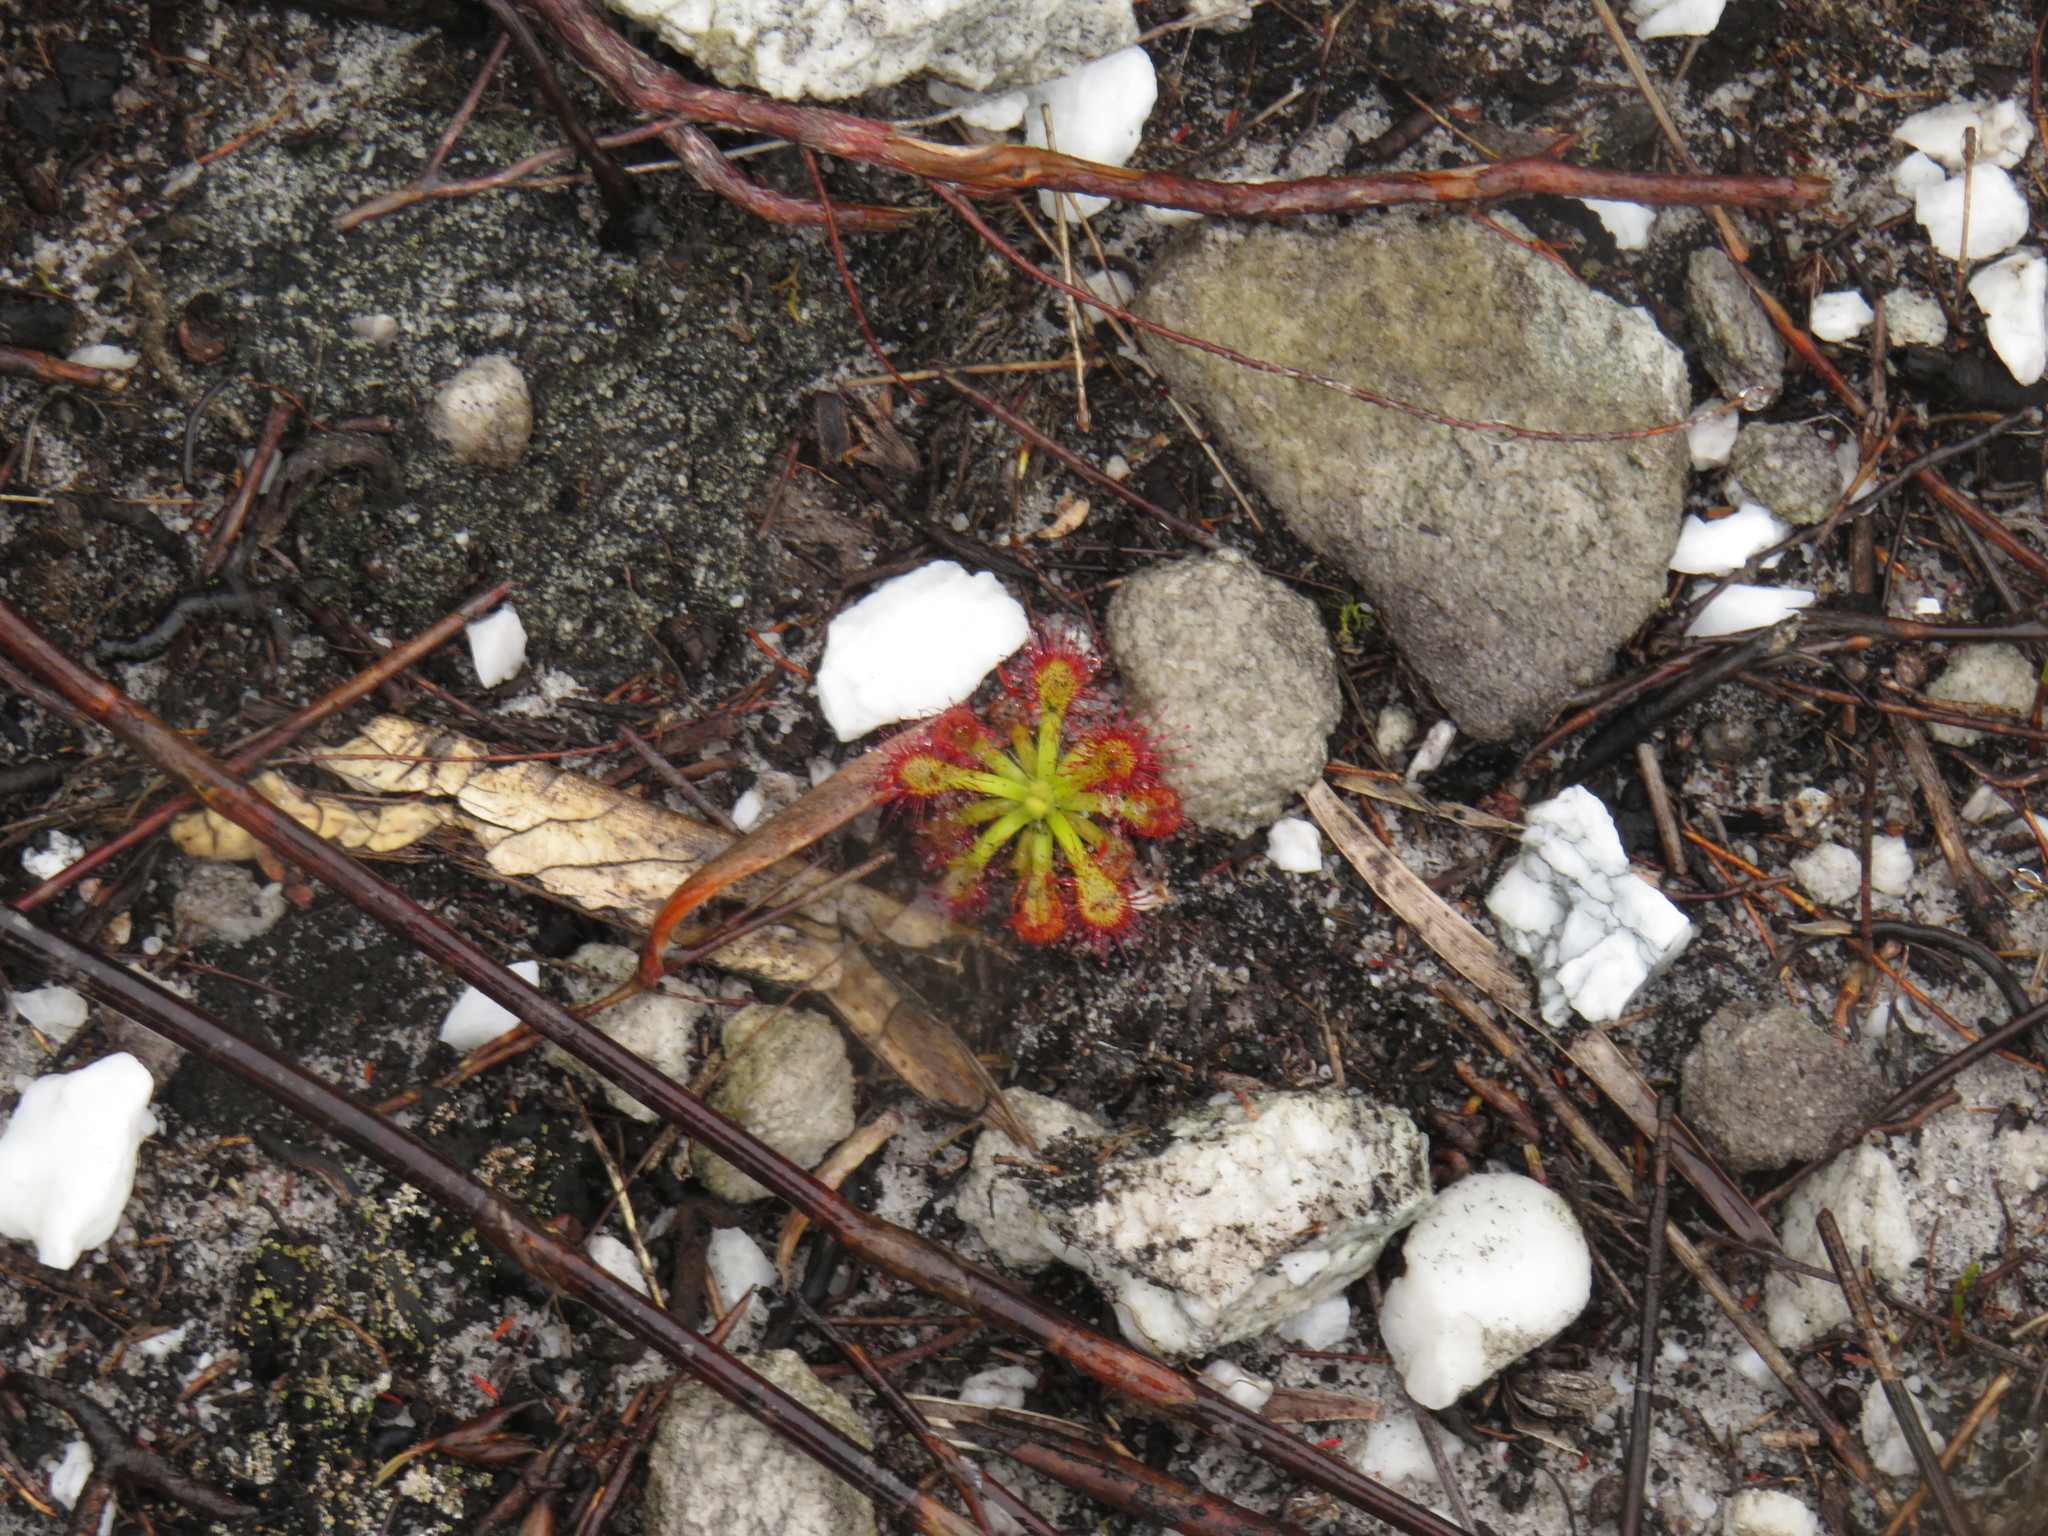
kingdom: Plantae
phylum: Tracheophyta
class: Magnoliopsida
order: Caryophyllales
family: Droseraceae
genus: Drosera
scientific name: Drosera
